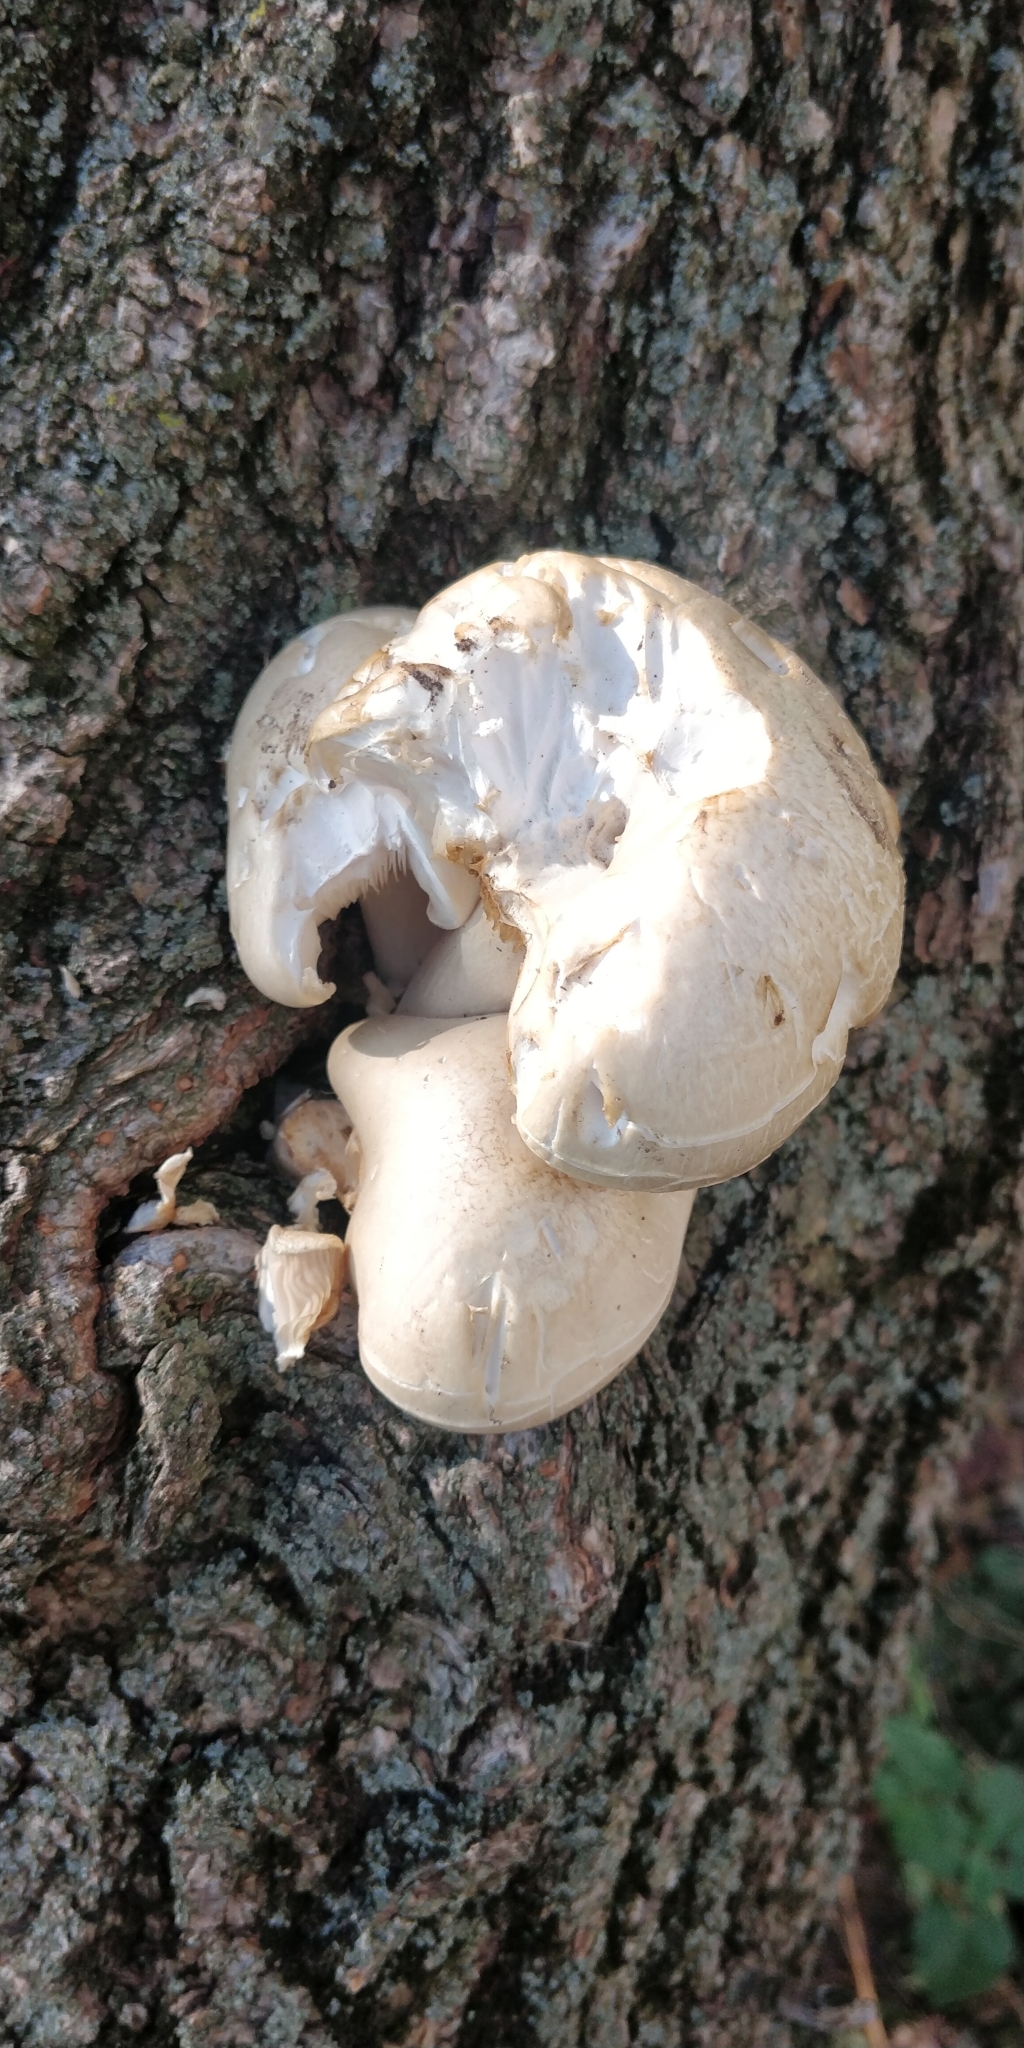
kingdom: Fungi
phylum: Basidiomycota
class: Agaricomycetes
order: Agaricales
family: Lyophyllaceae
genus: Hypsizygus
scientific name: Hypsizygus ulmarius
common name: Elm leech
